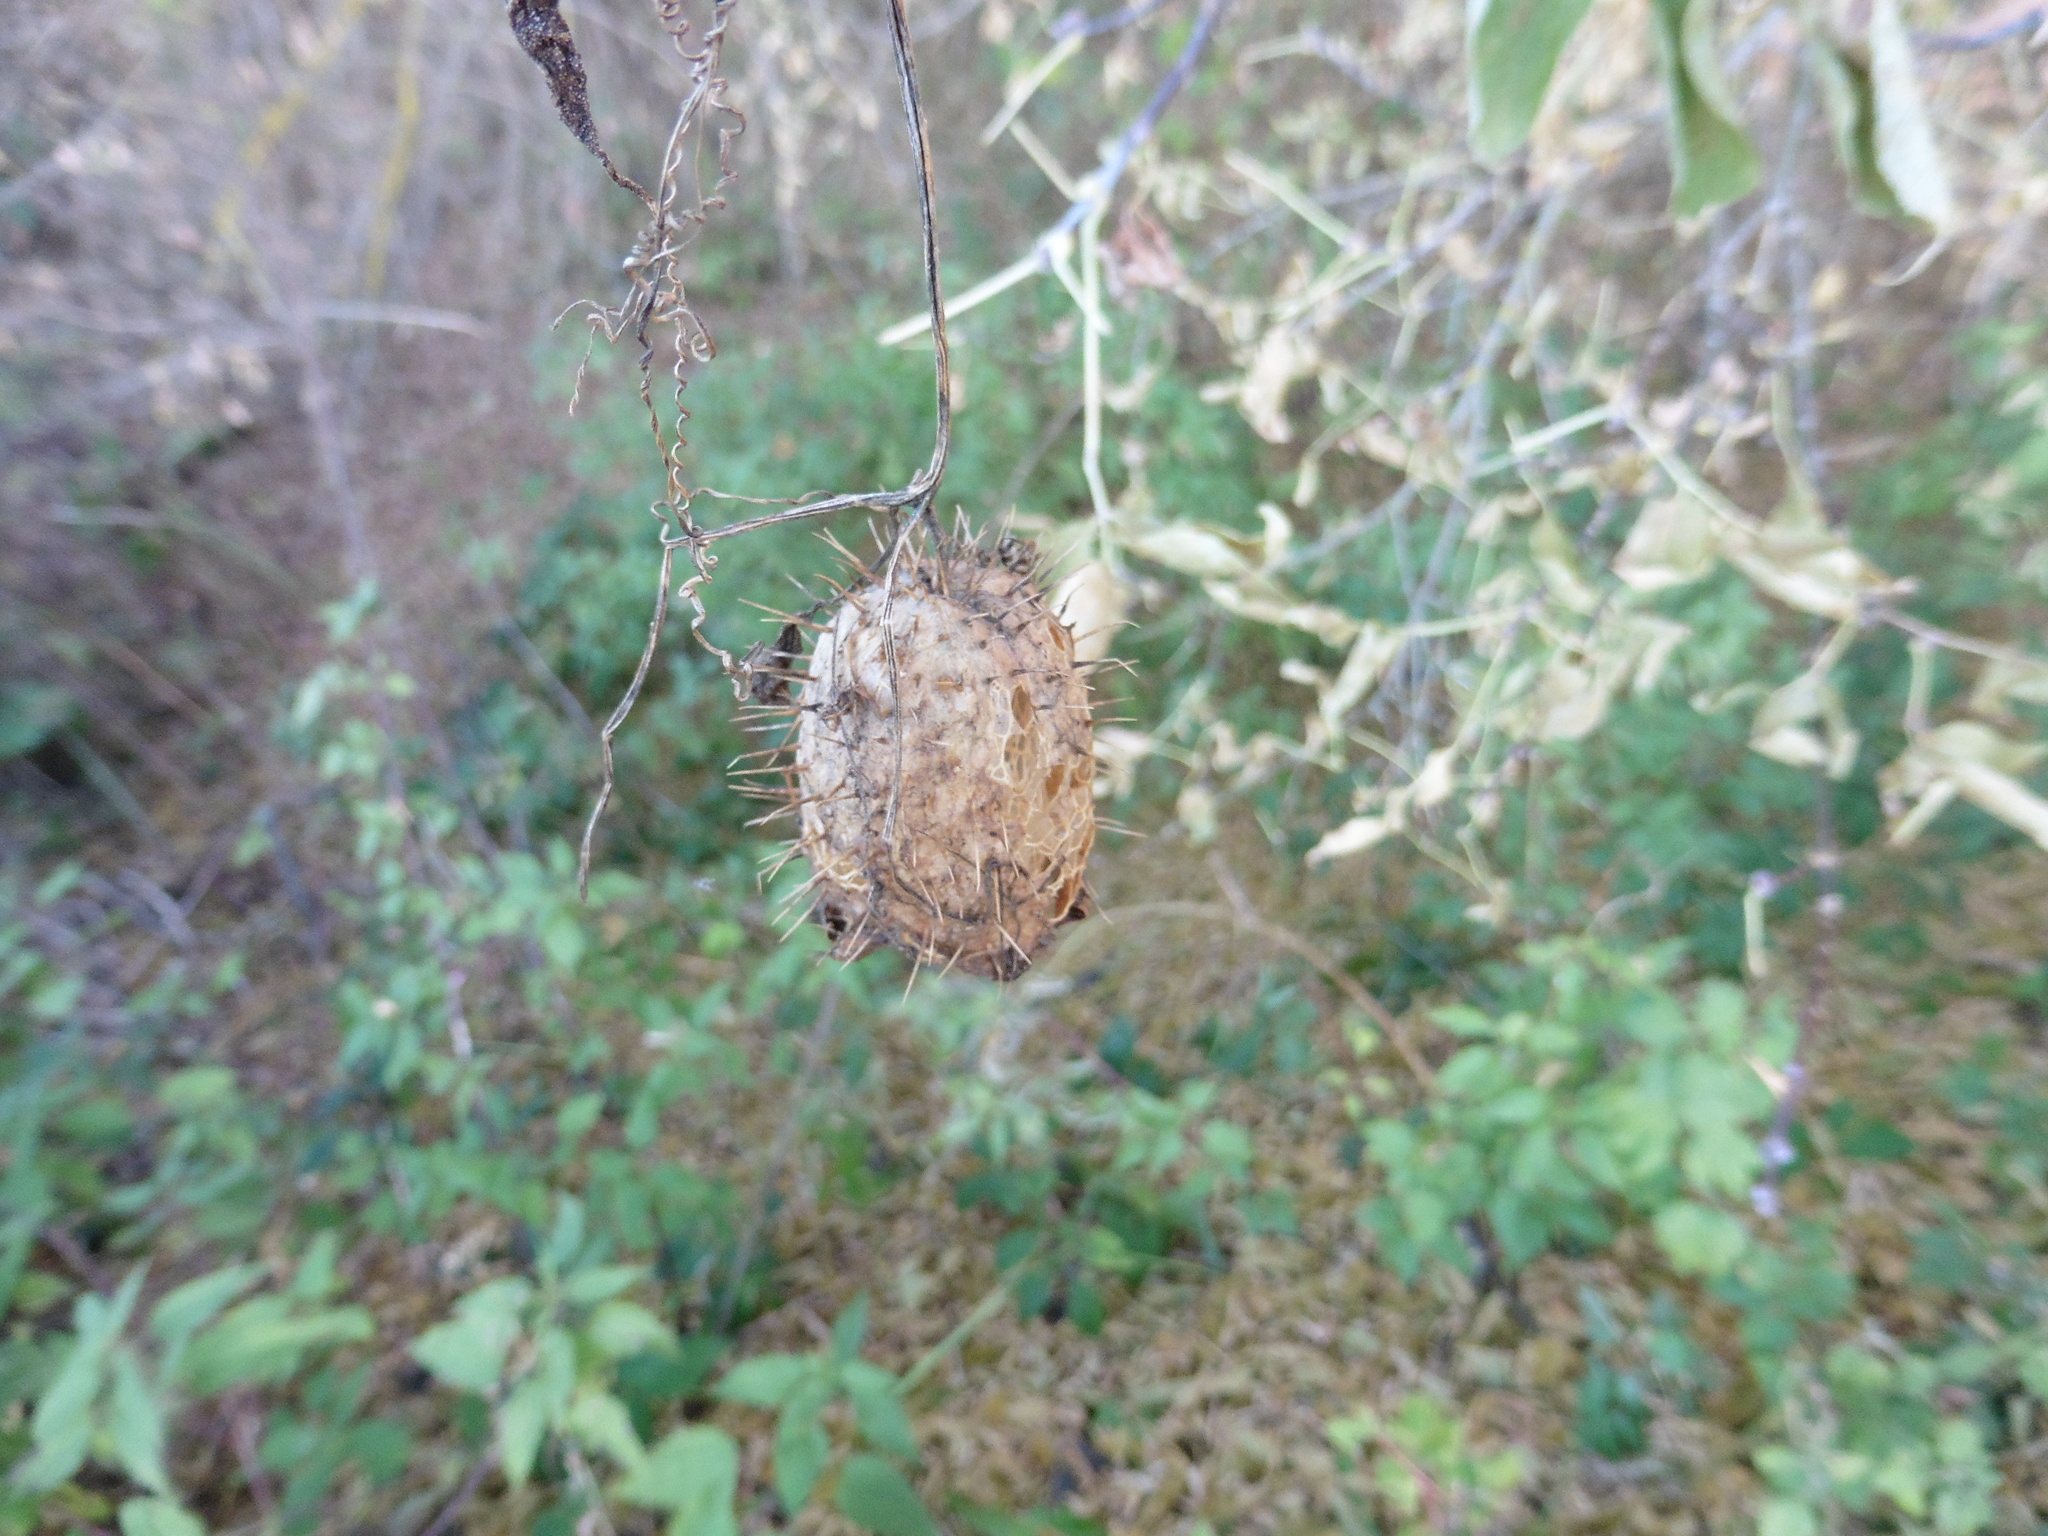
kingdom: Plantae
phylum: Tracheophyta
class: Magnoliopsida
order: Cucurbitales
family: Cucurbitaceae
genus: Echinocystis
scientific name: Echinocystis lobata
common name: Wild cucumber
